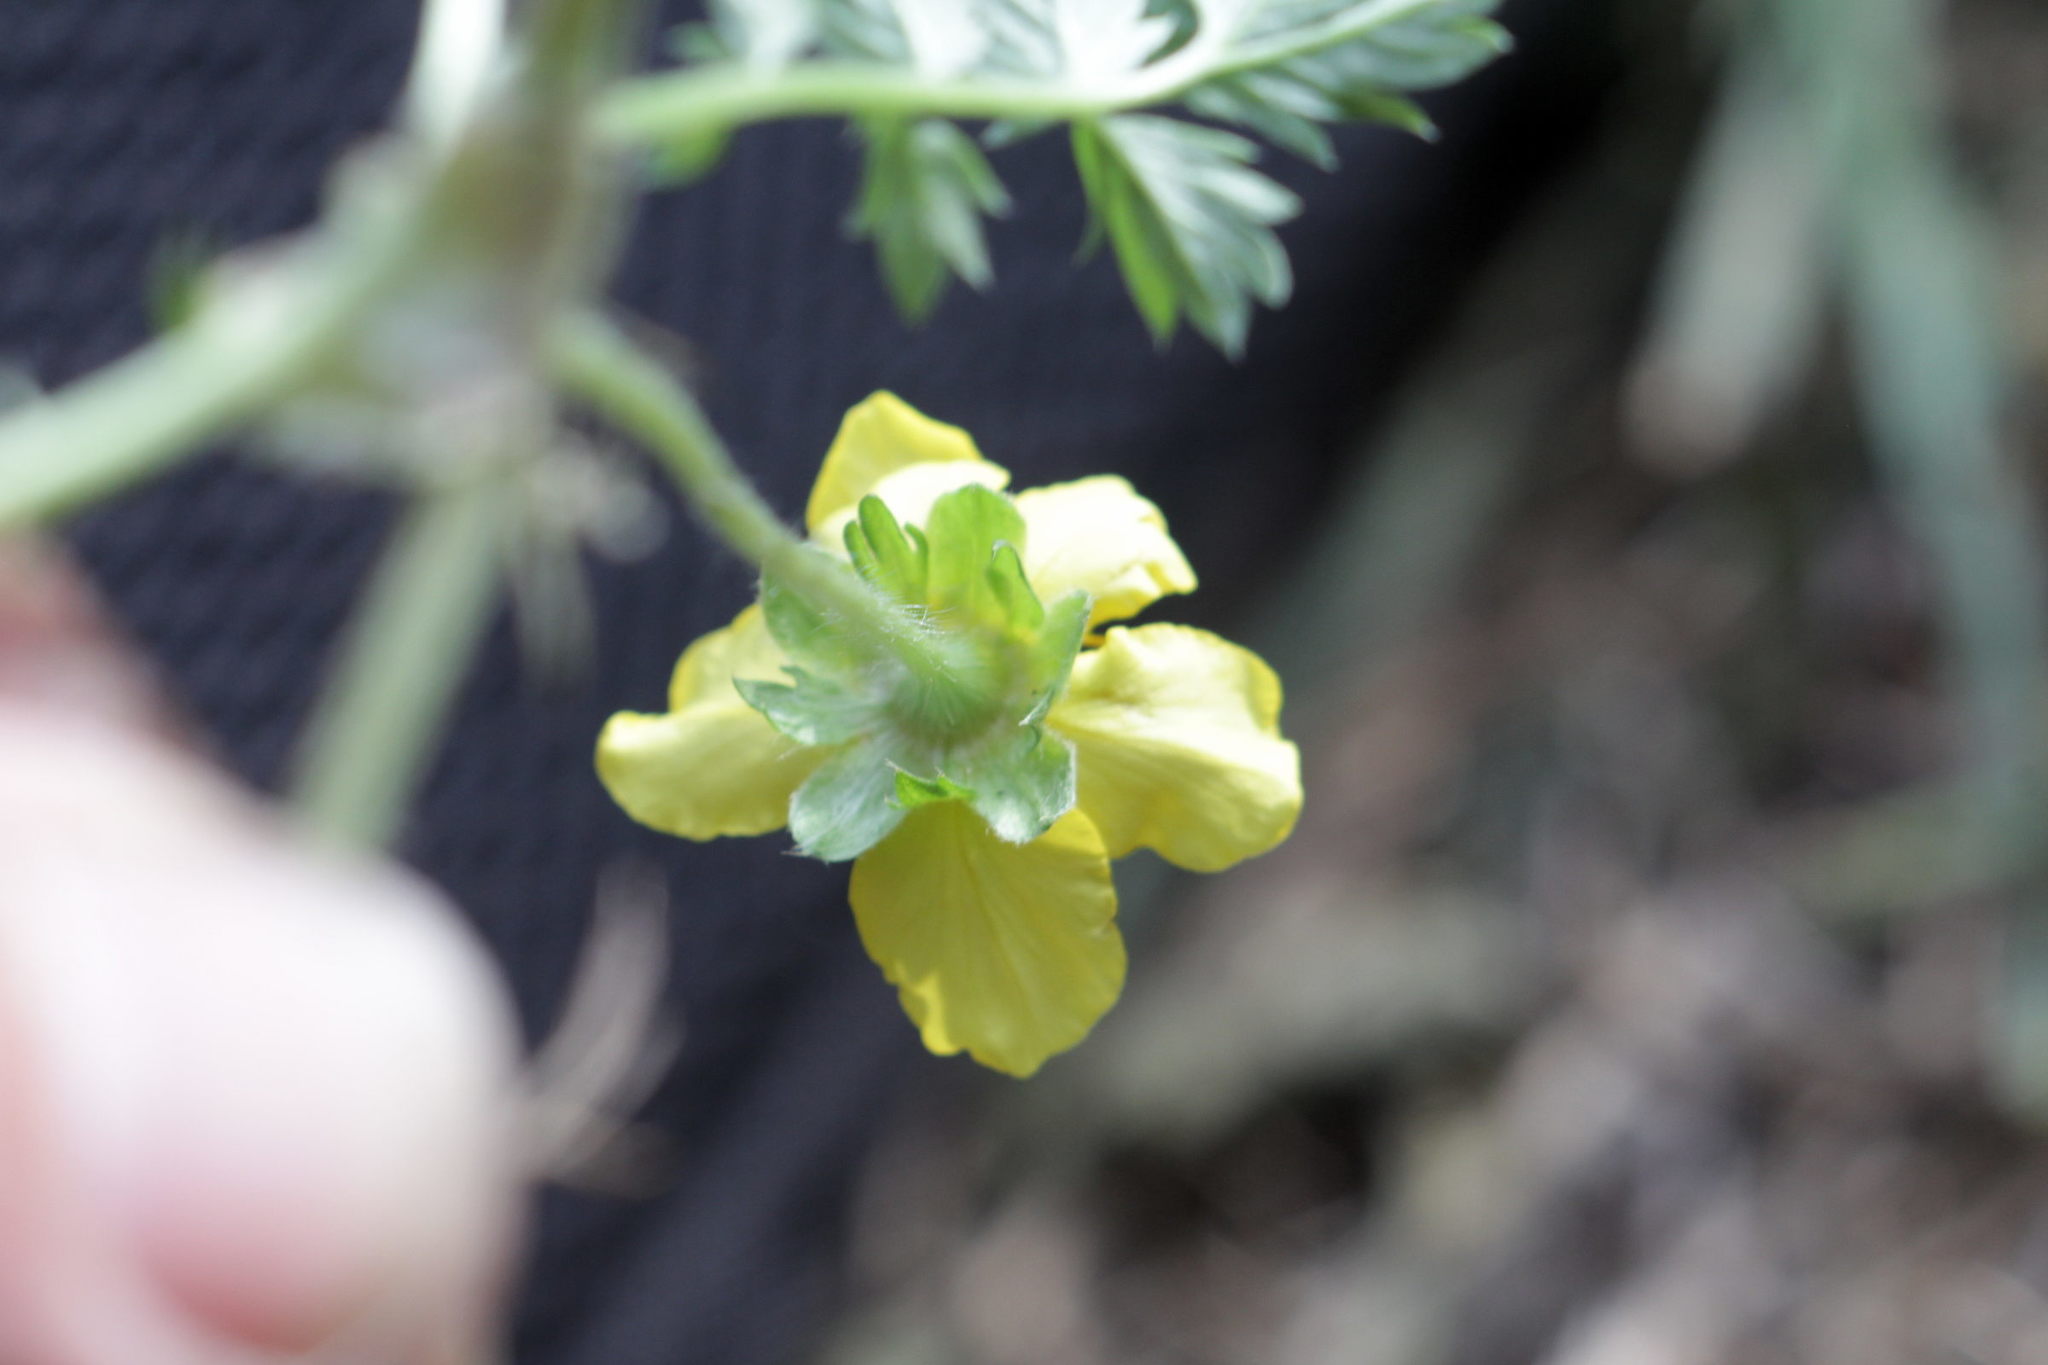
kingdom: Plantae
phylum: Tracheophyta
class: Magnoliopsida
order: Rosales
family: Rosaceae
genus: Argentina
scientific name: Argentina anserina
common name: Common silverweed
